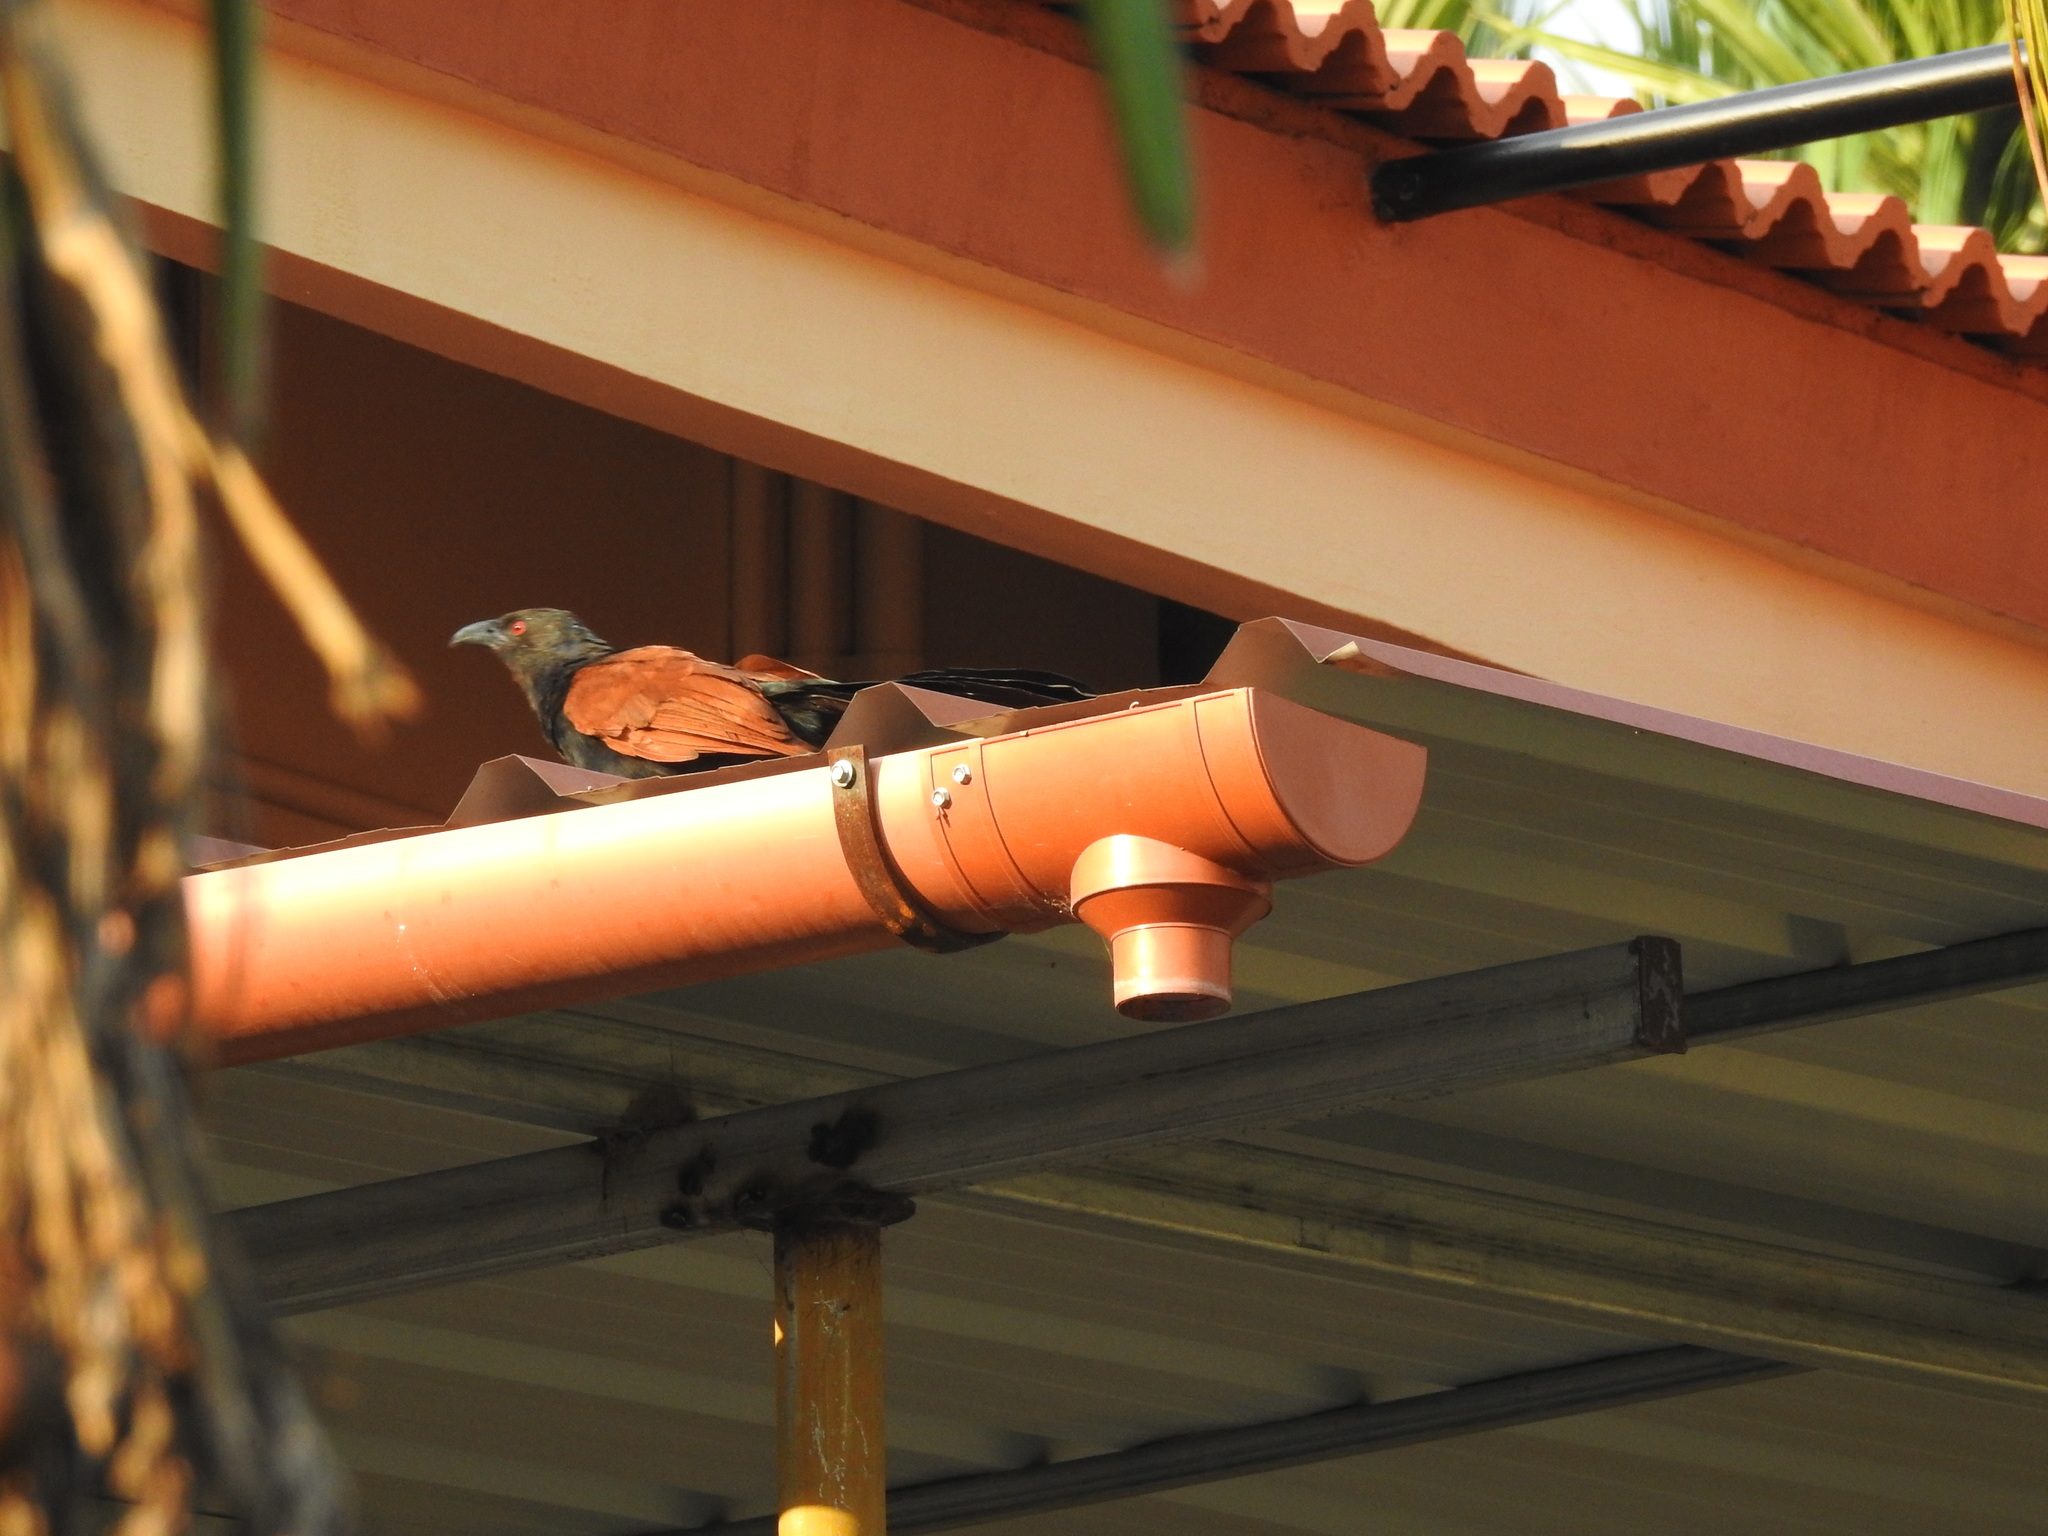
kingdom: Animalia
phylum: Chordata
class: Aves
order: Cuculiformes
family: Cuculidae
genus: Centropus
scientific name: Centropus sinensis
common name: Greater coucal
